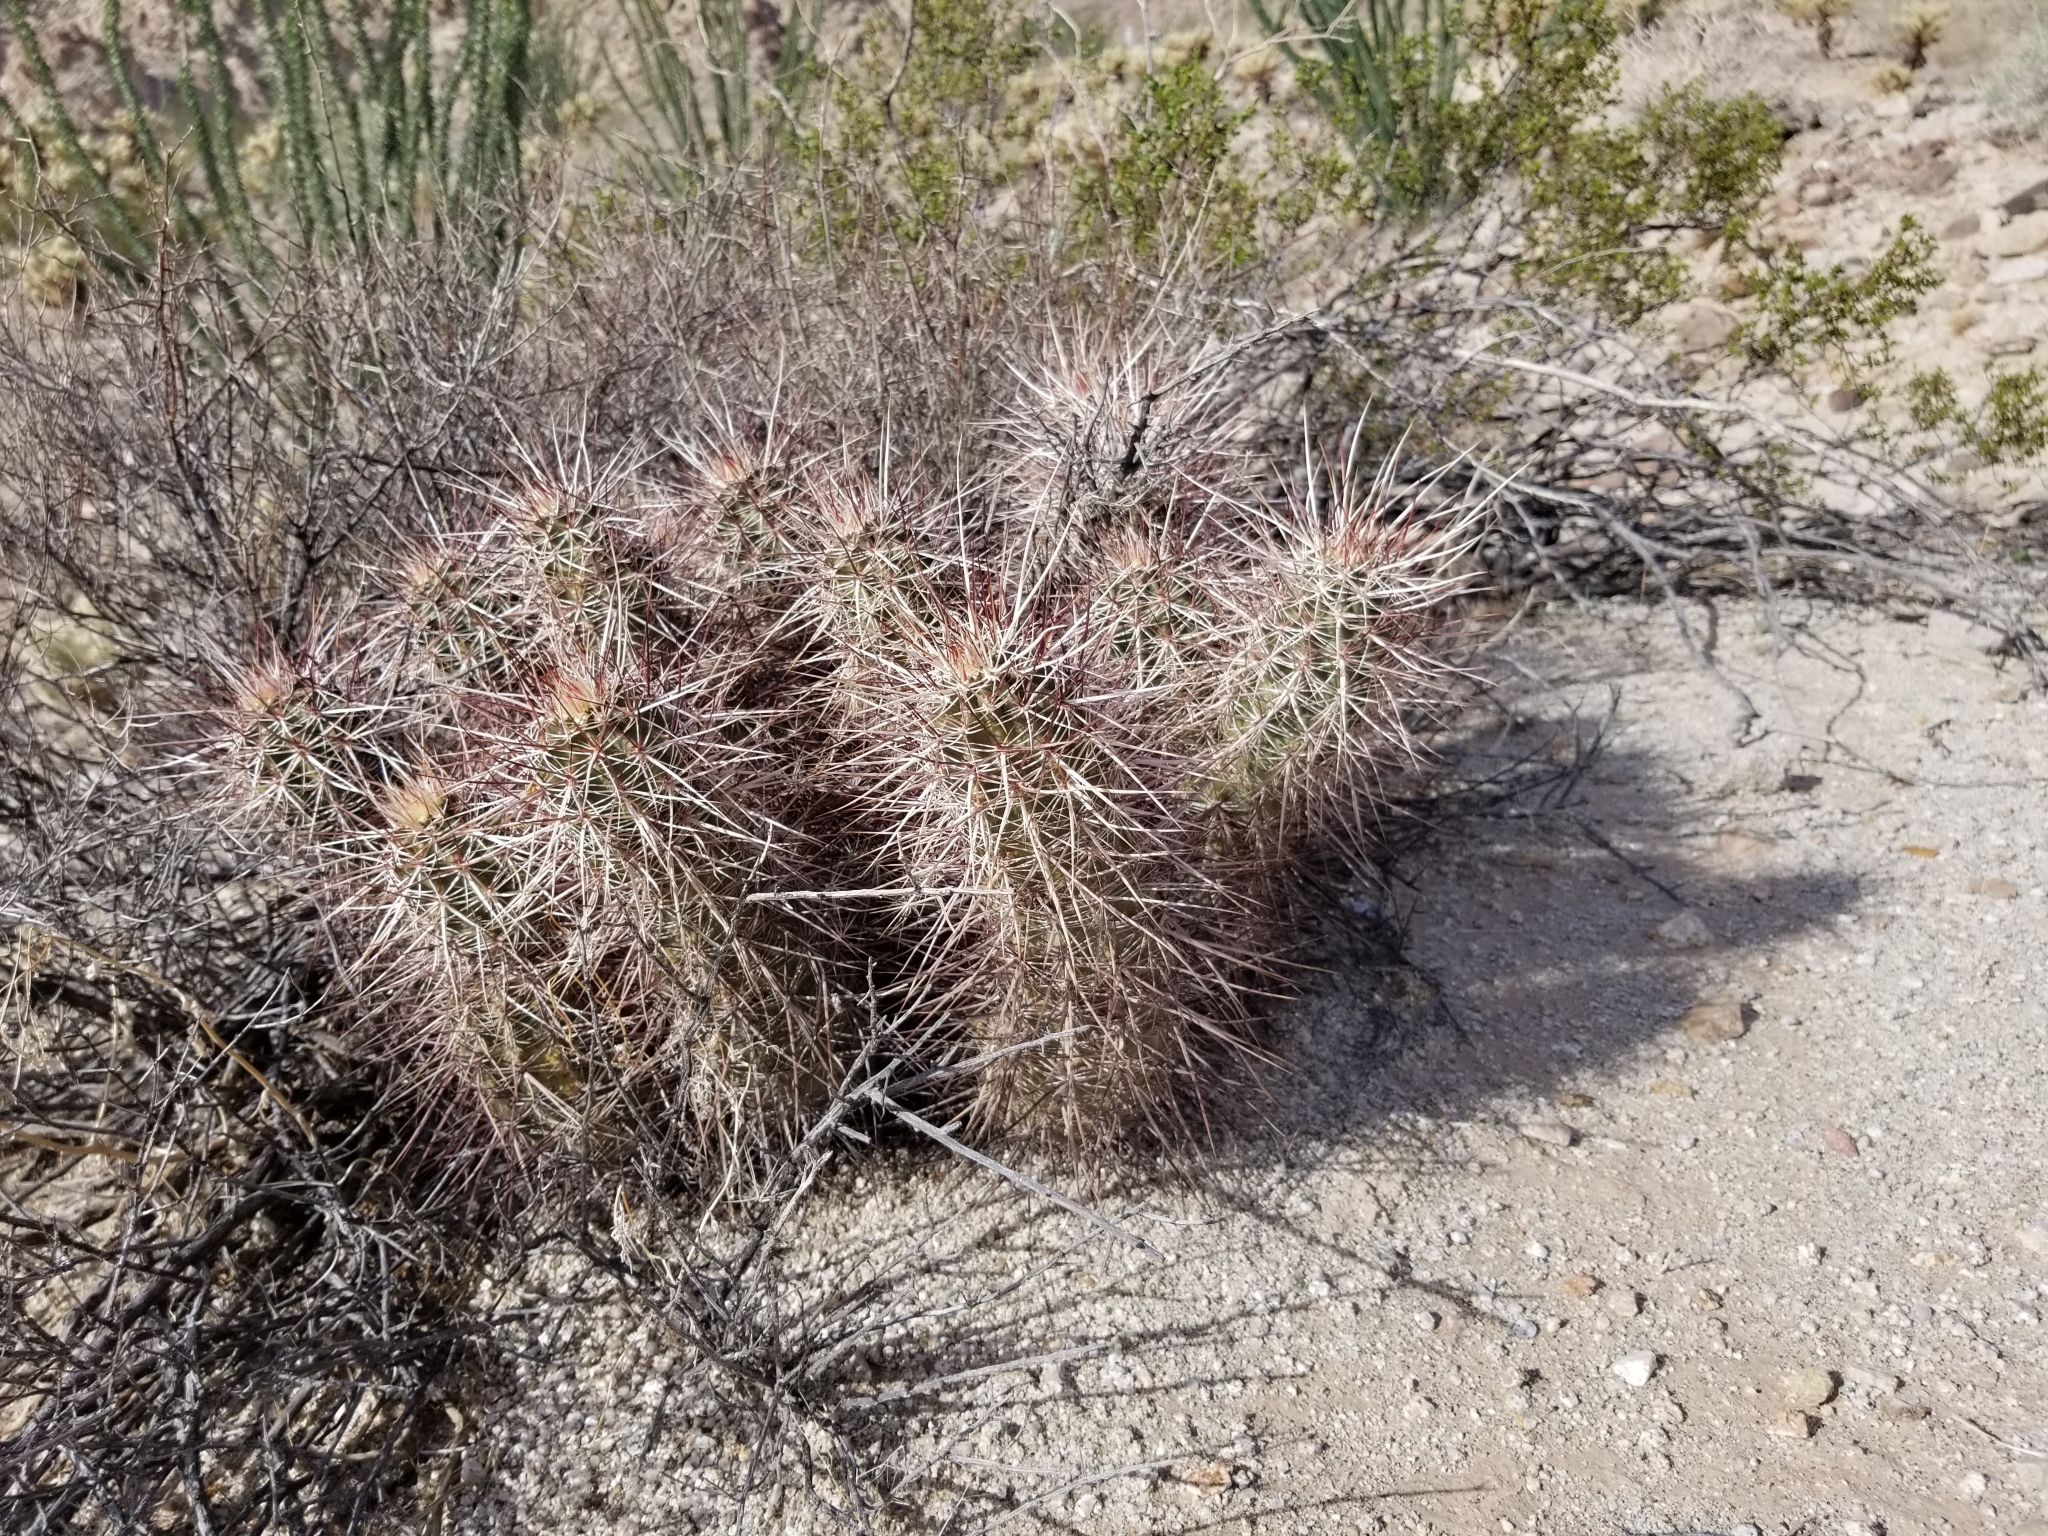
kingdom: Plantae
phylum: Tracheophyta
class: Magnoliopsida
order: Caryophyllales
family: Cactaceae
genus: Echinocereus
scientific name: Echinocereus engelmannii
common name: Engelmann's hedgehog cactus
